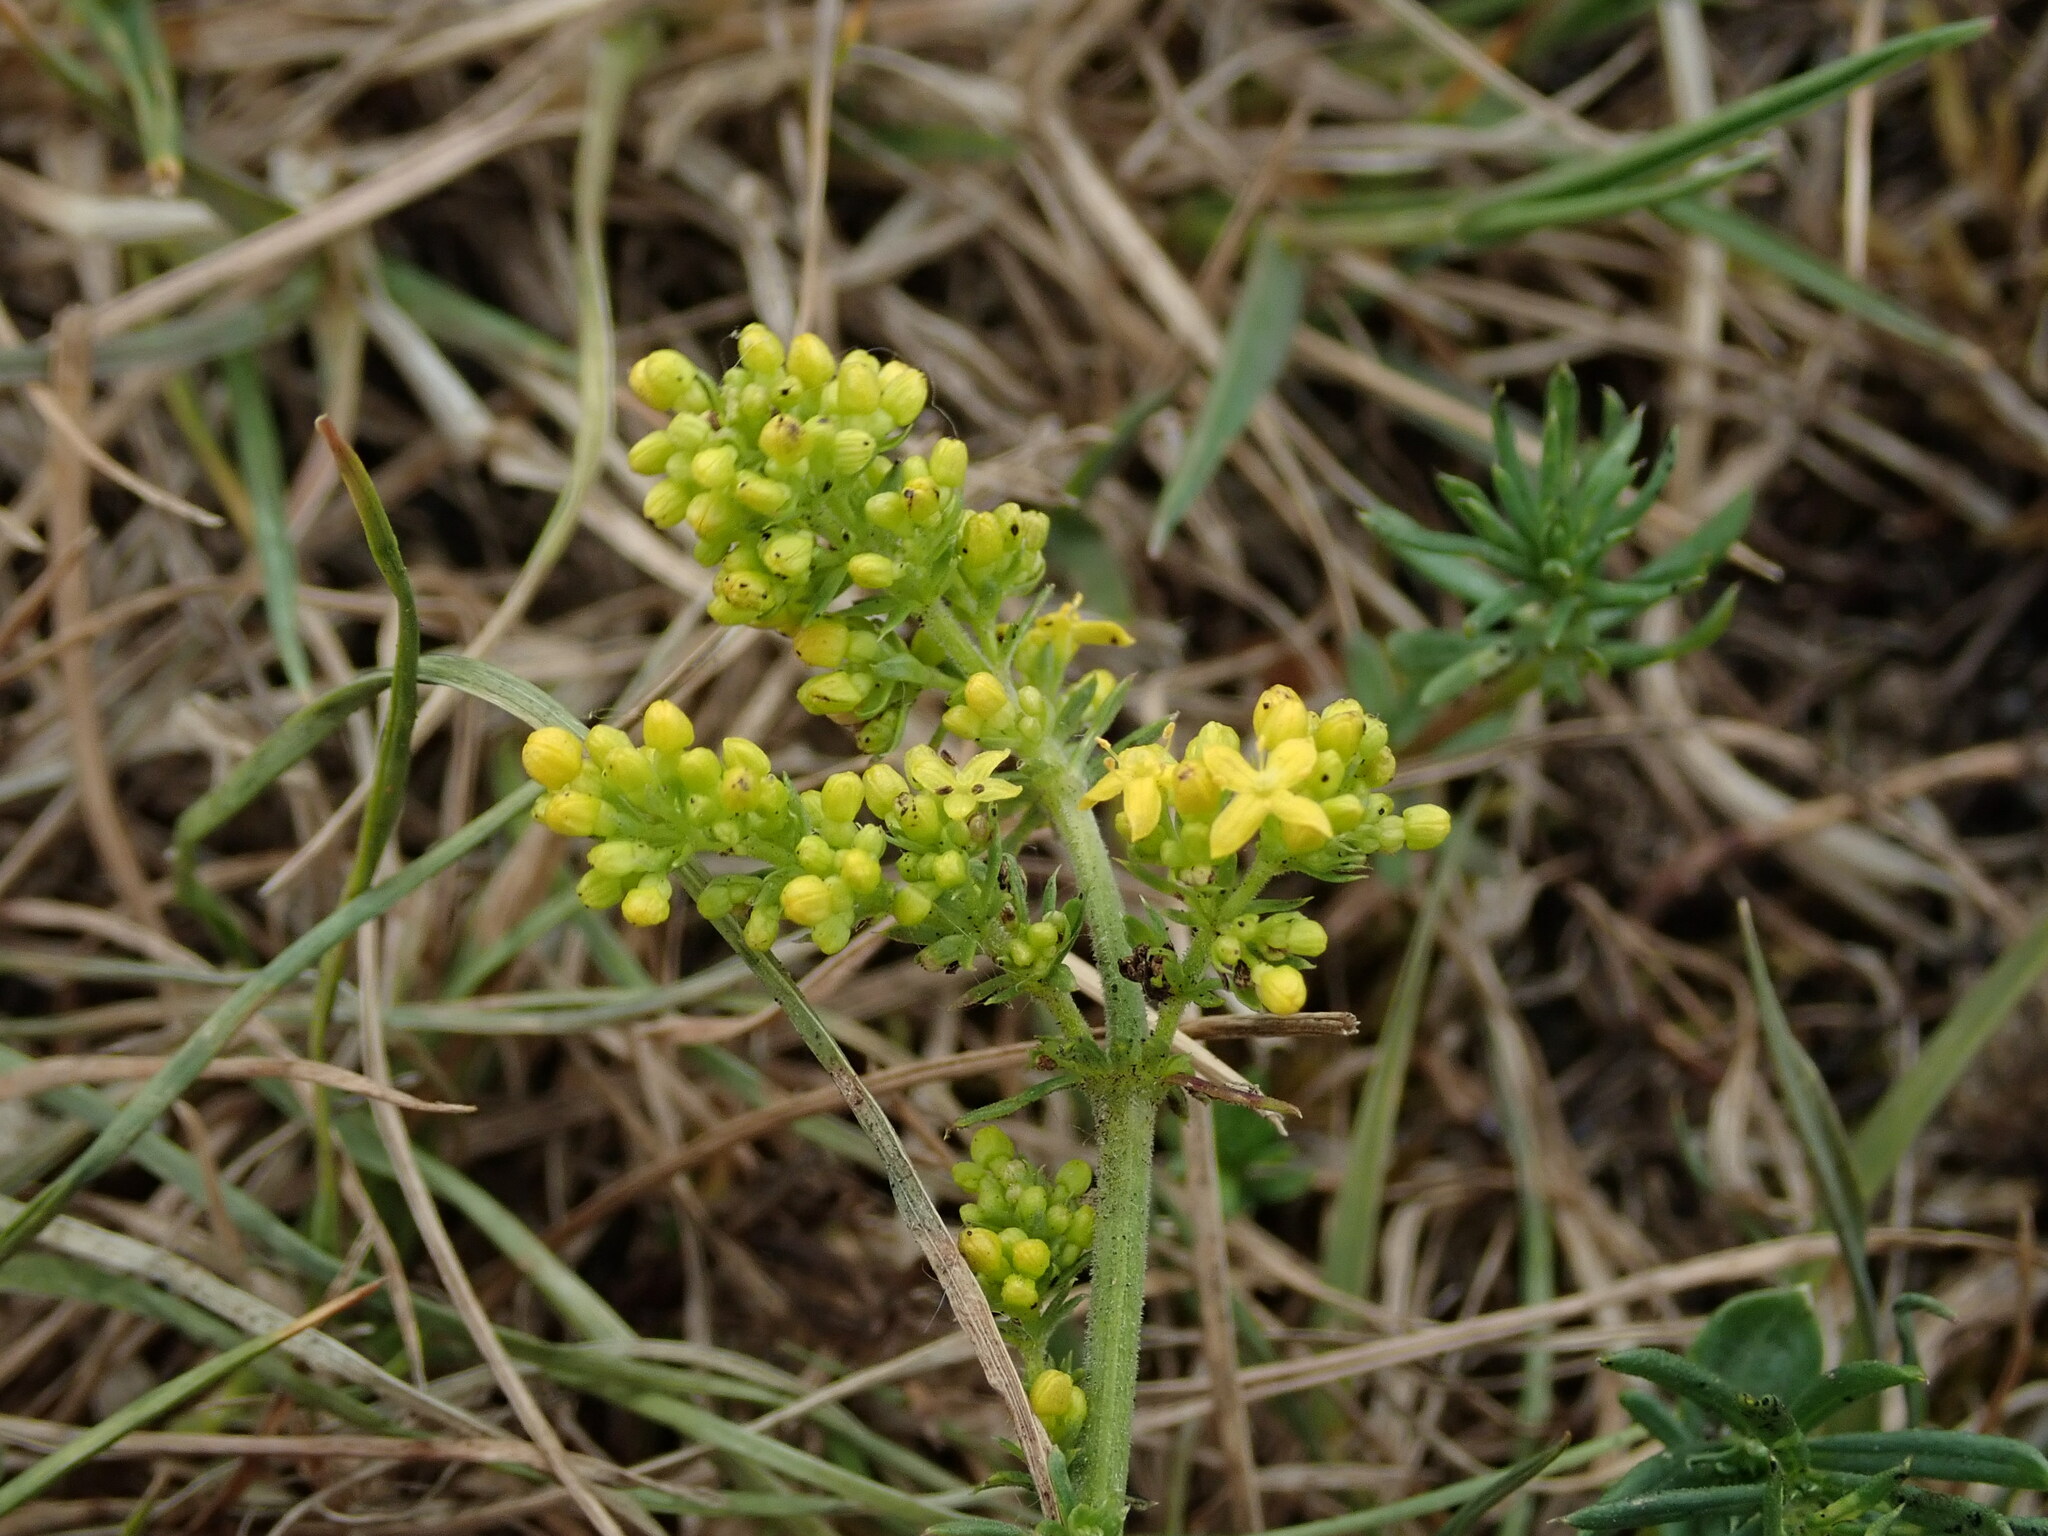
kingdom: Plantae
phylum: Tracheophyta
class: Magnoliopsida
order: Gentianales
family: Rubiaceae
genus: Galium
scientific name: Galium verum
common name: Lady's bedstraw
